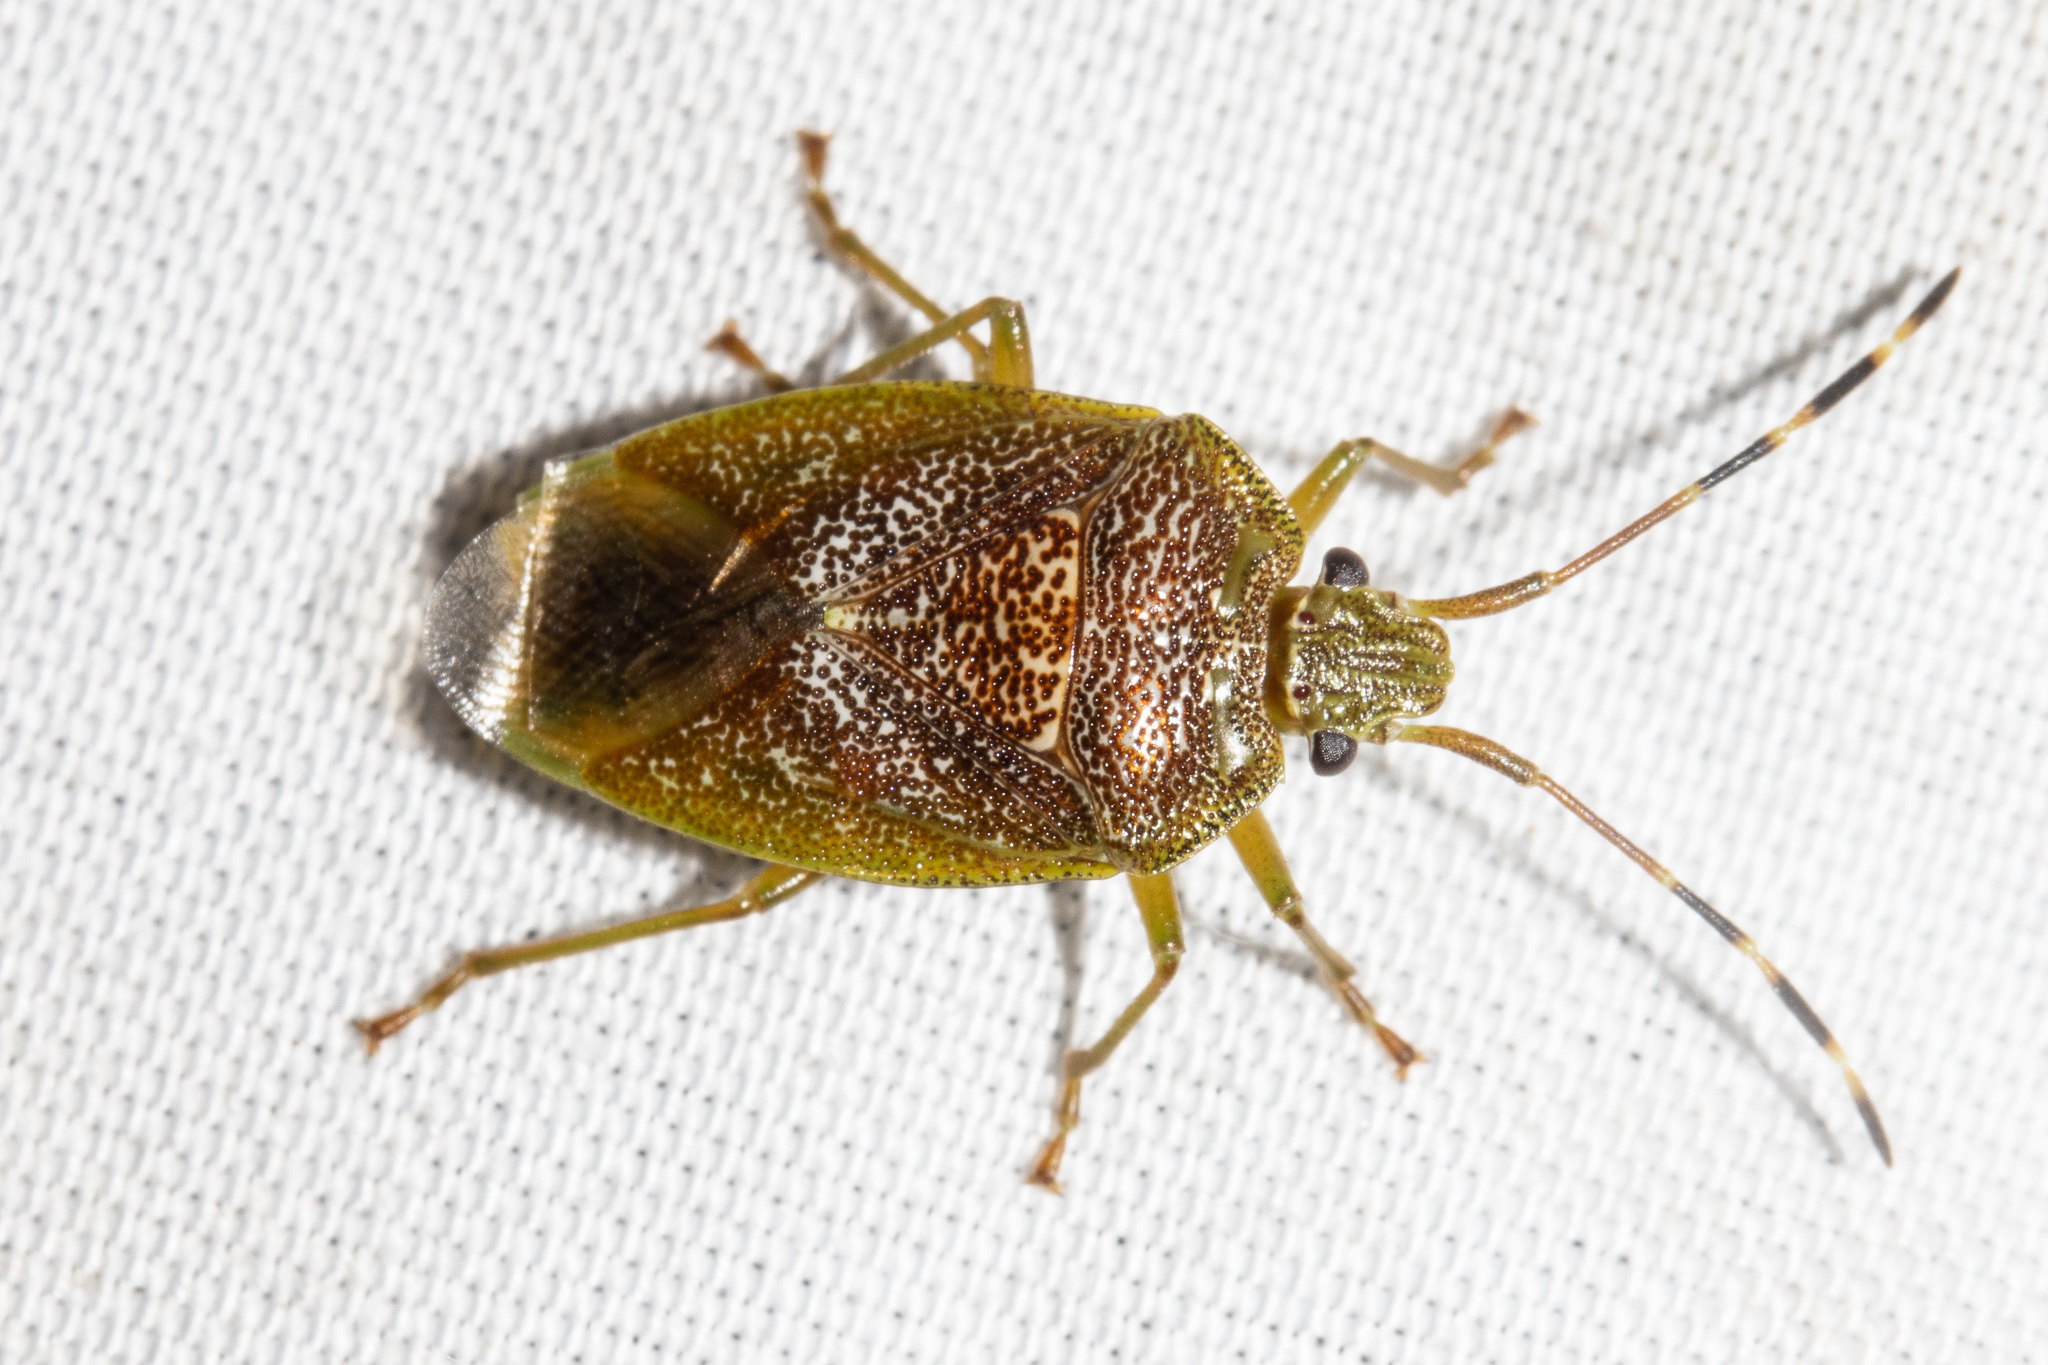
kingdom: Animalia
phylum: Arthropoda
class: Insecta
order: Hemiptera
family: Acanthosomatidae
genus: Rhopalimorpha
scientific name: Rhopalimorpha alpina
